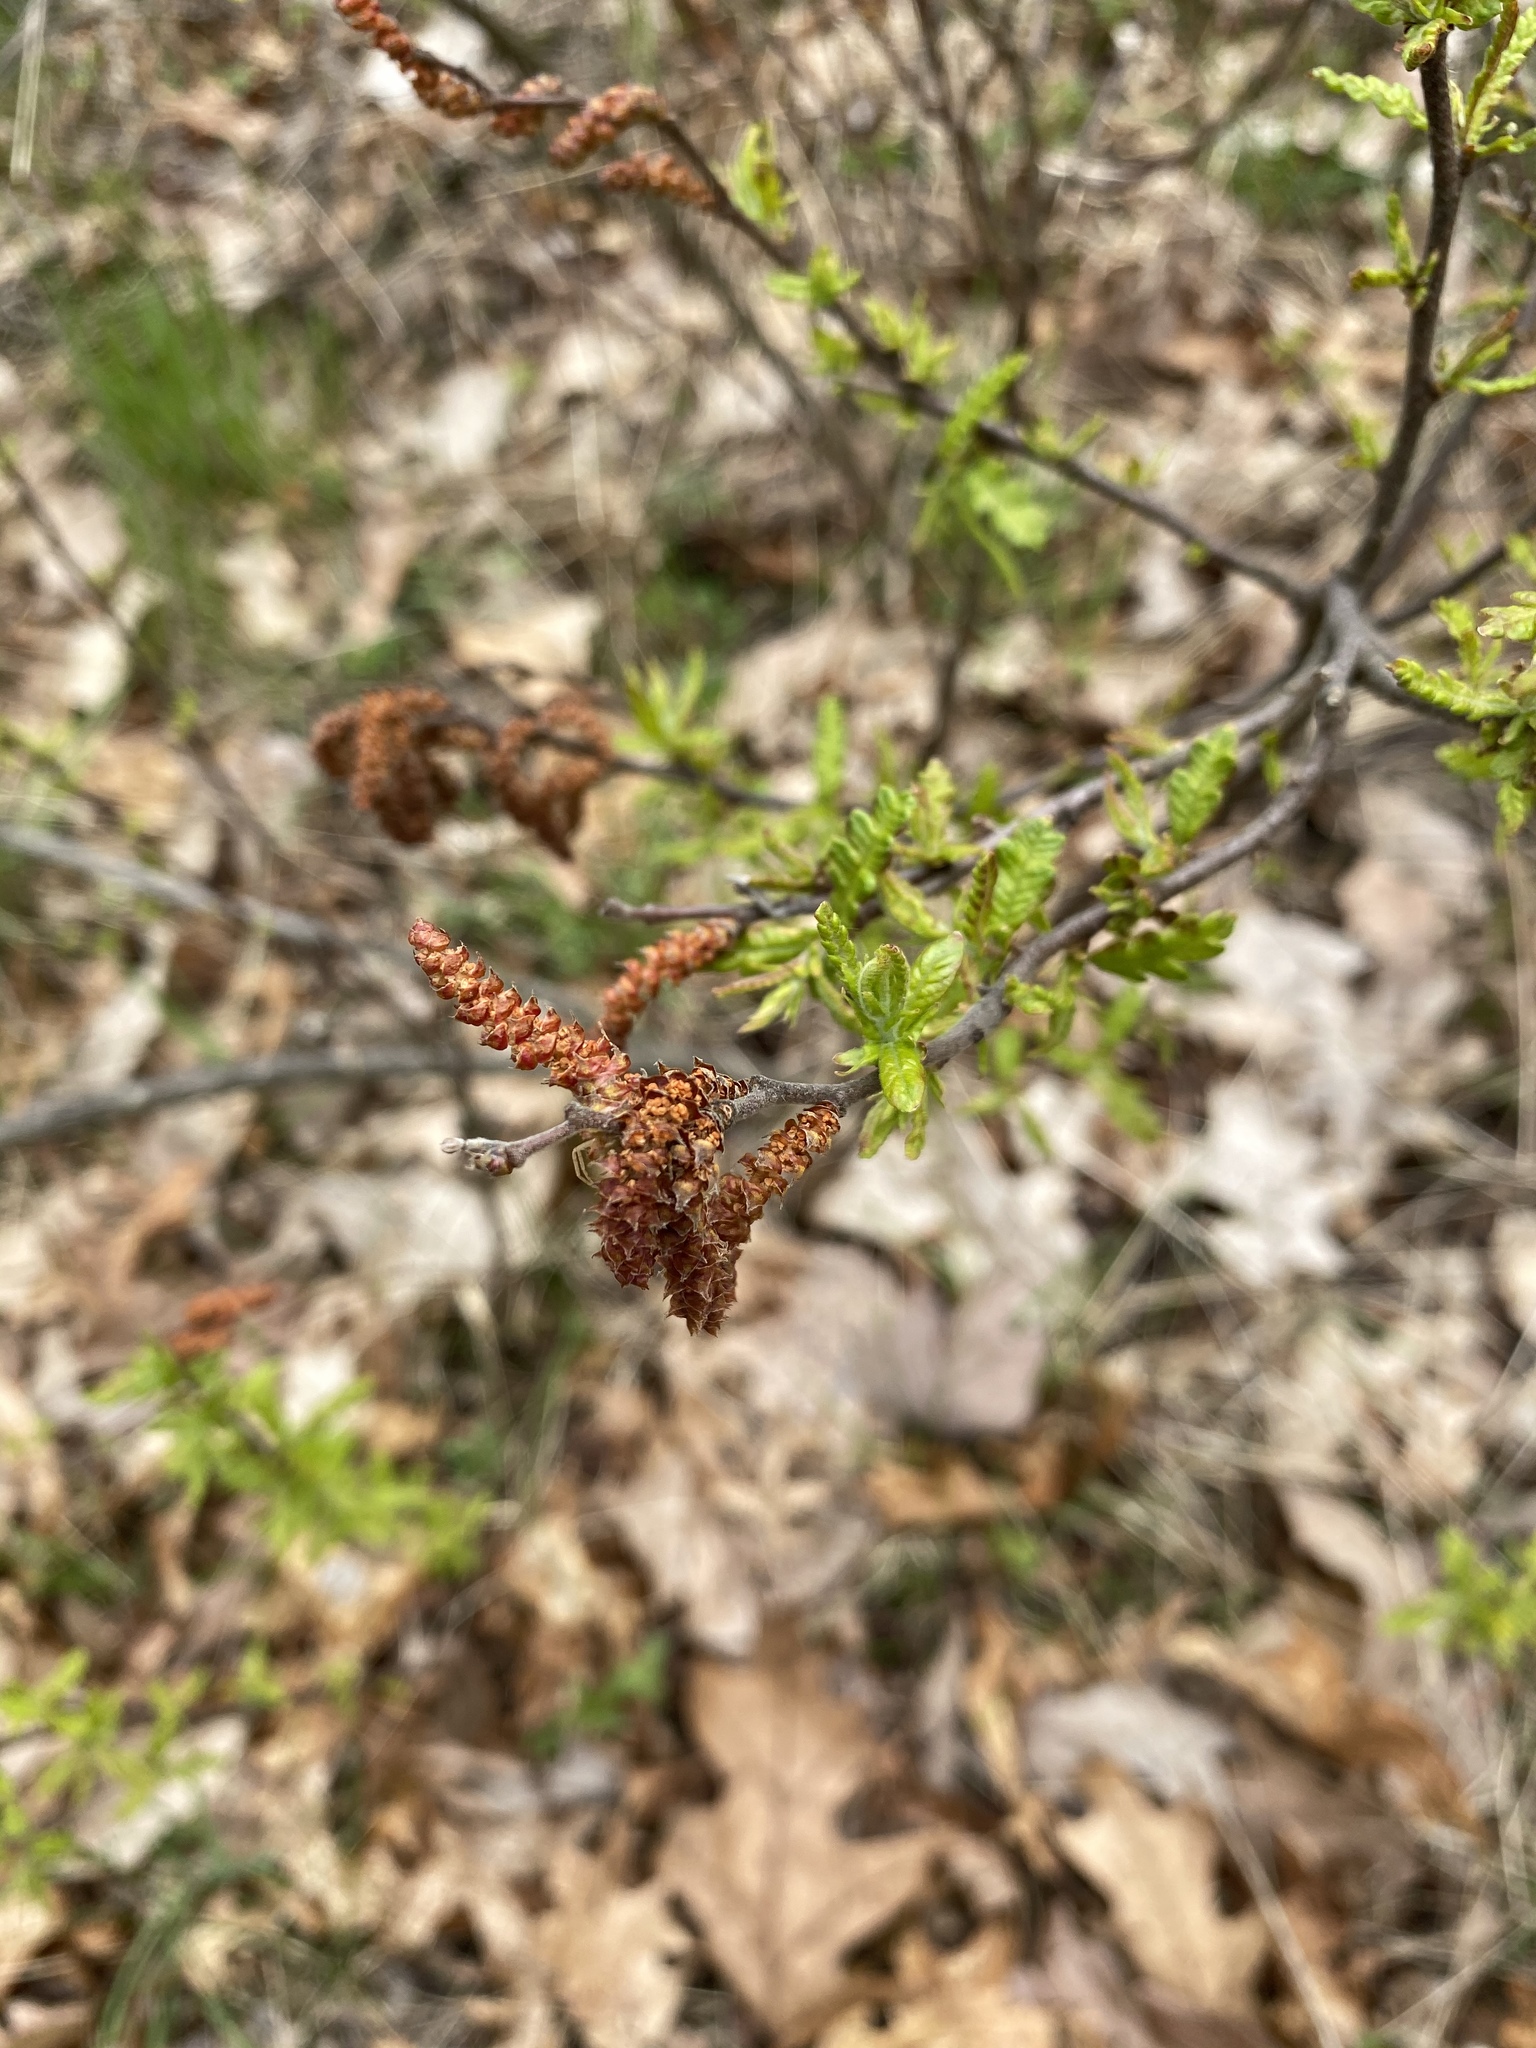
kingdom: Plantae
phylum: Tracheophyta
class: Magnoliopsida
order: Fagales
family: Myricaceae
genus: Comptonia
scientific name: Comptonia peregrina
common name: Sweet-fern
